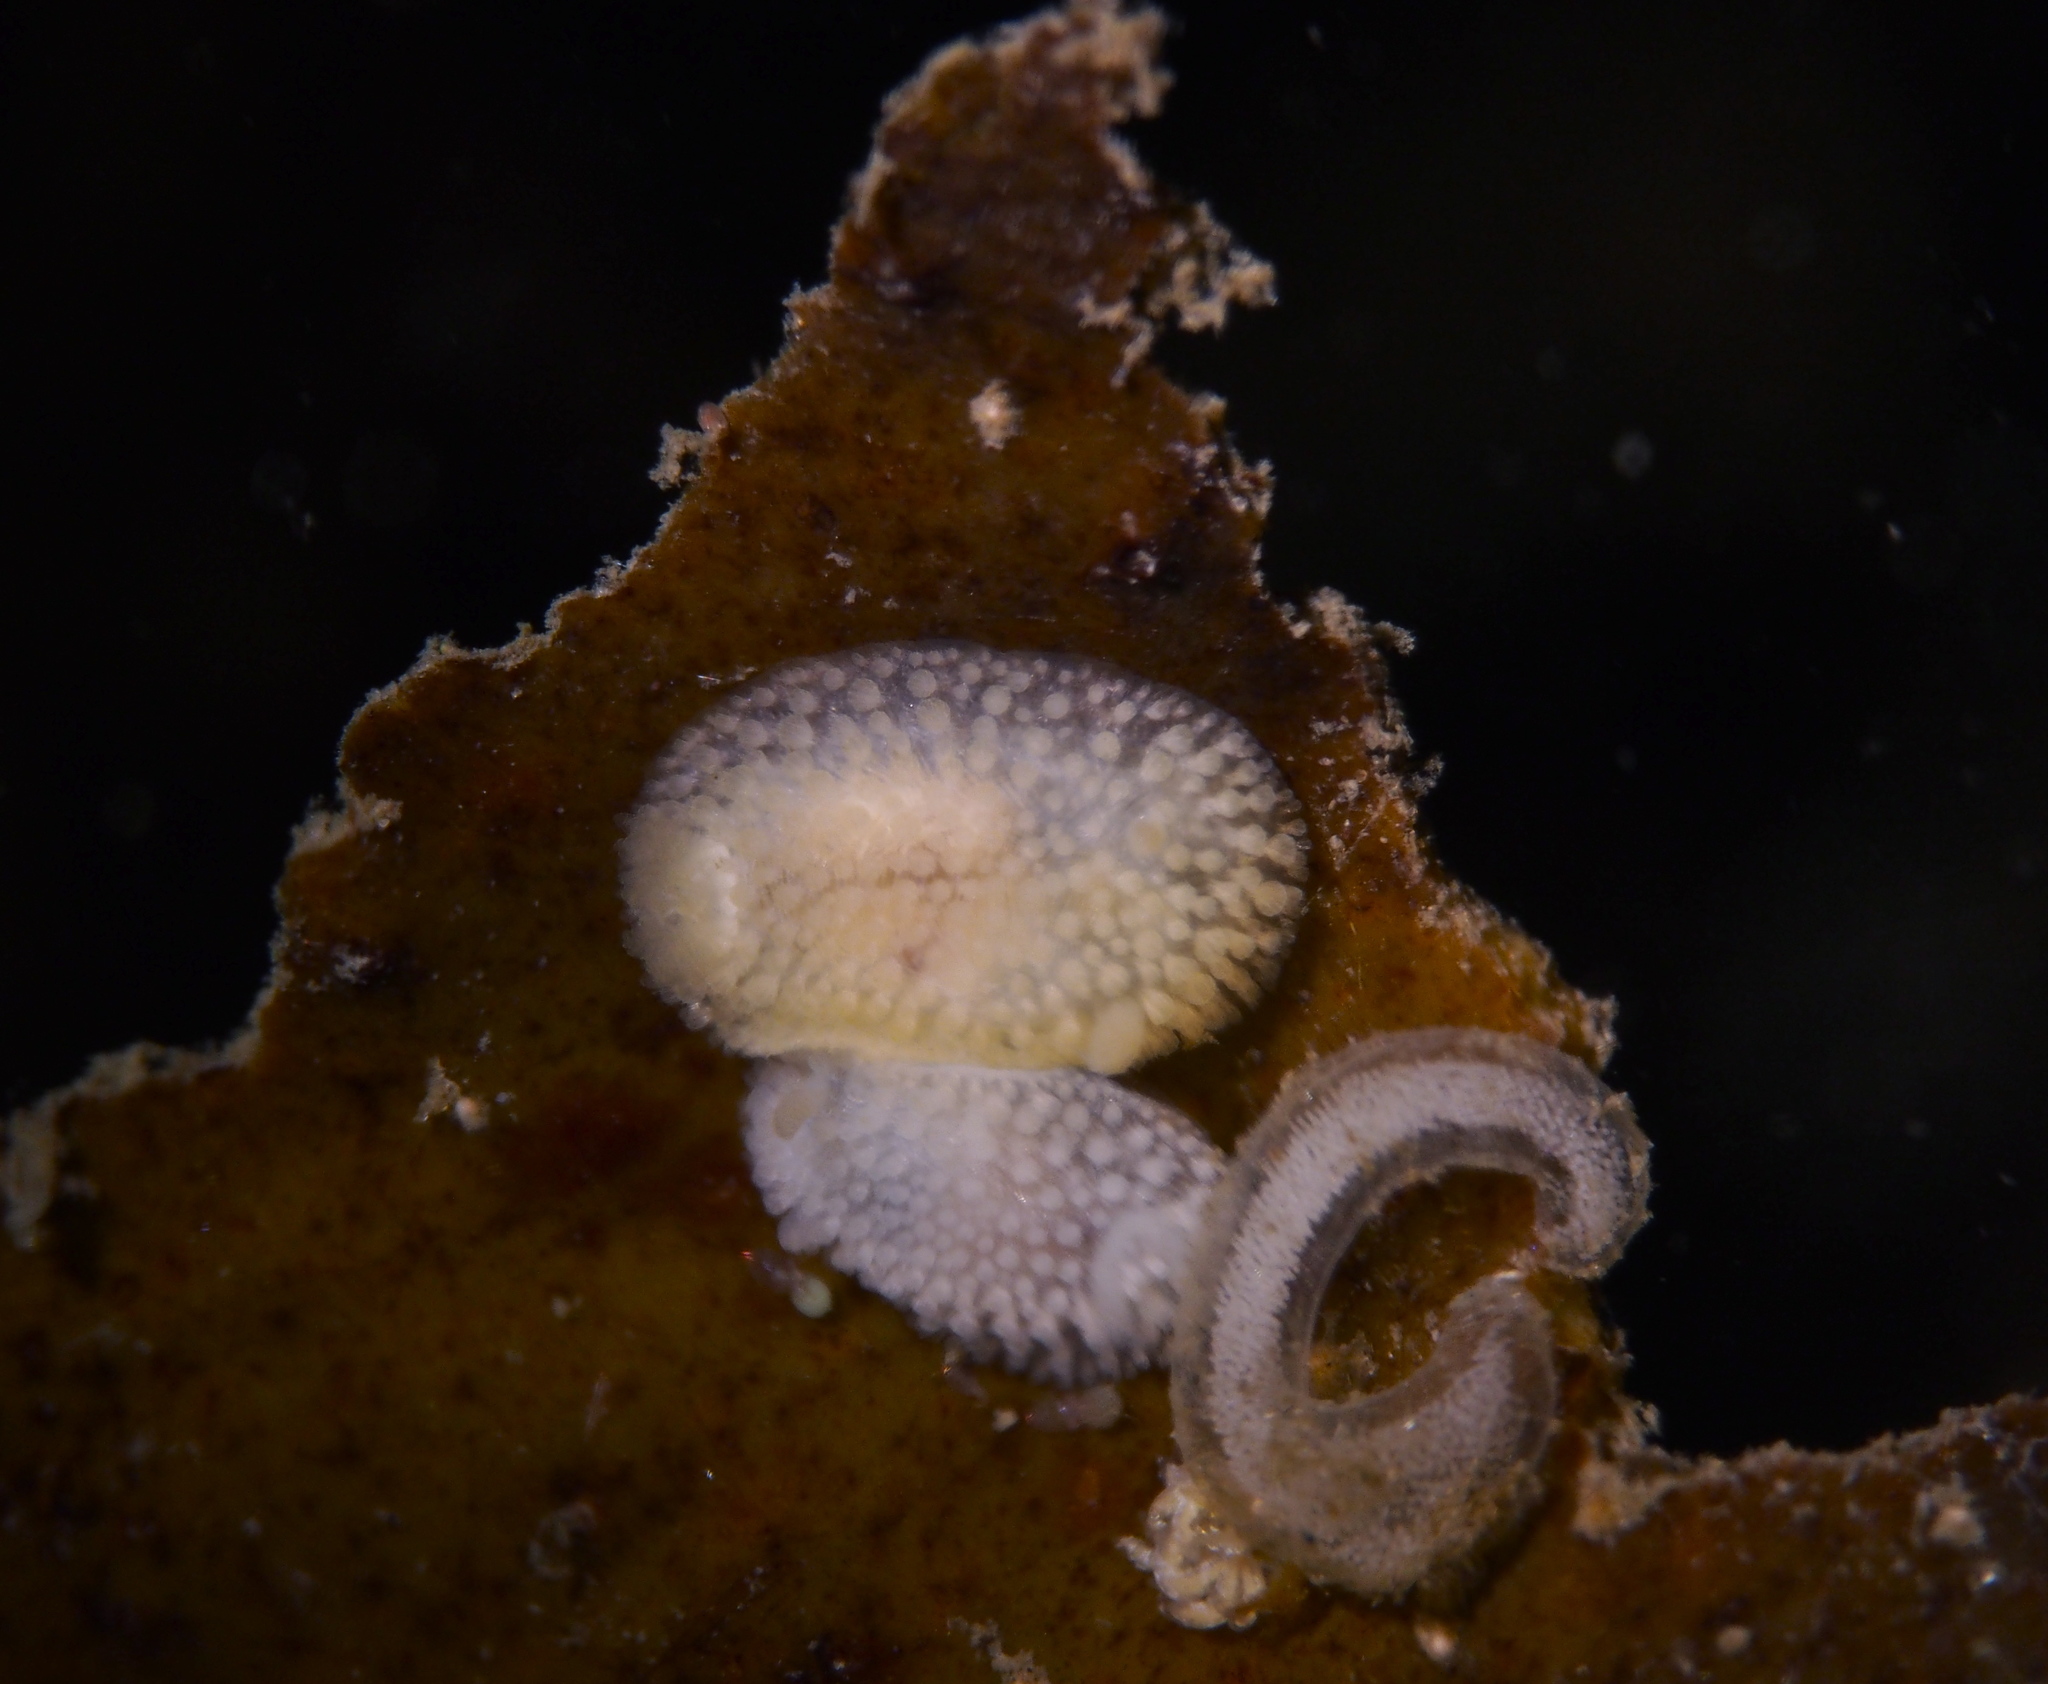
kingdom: Animalia
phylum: Mollusca
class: Gastropoda
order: Nudibranchia
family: Onchidorididae
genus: Onchidoris
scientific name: Onchidoris muricata
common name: Rough doris
